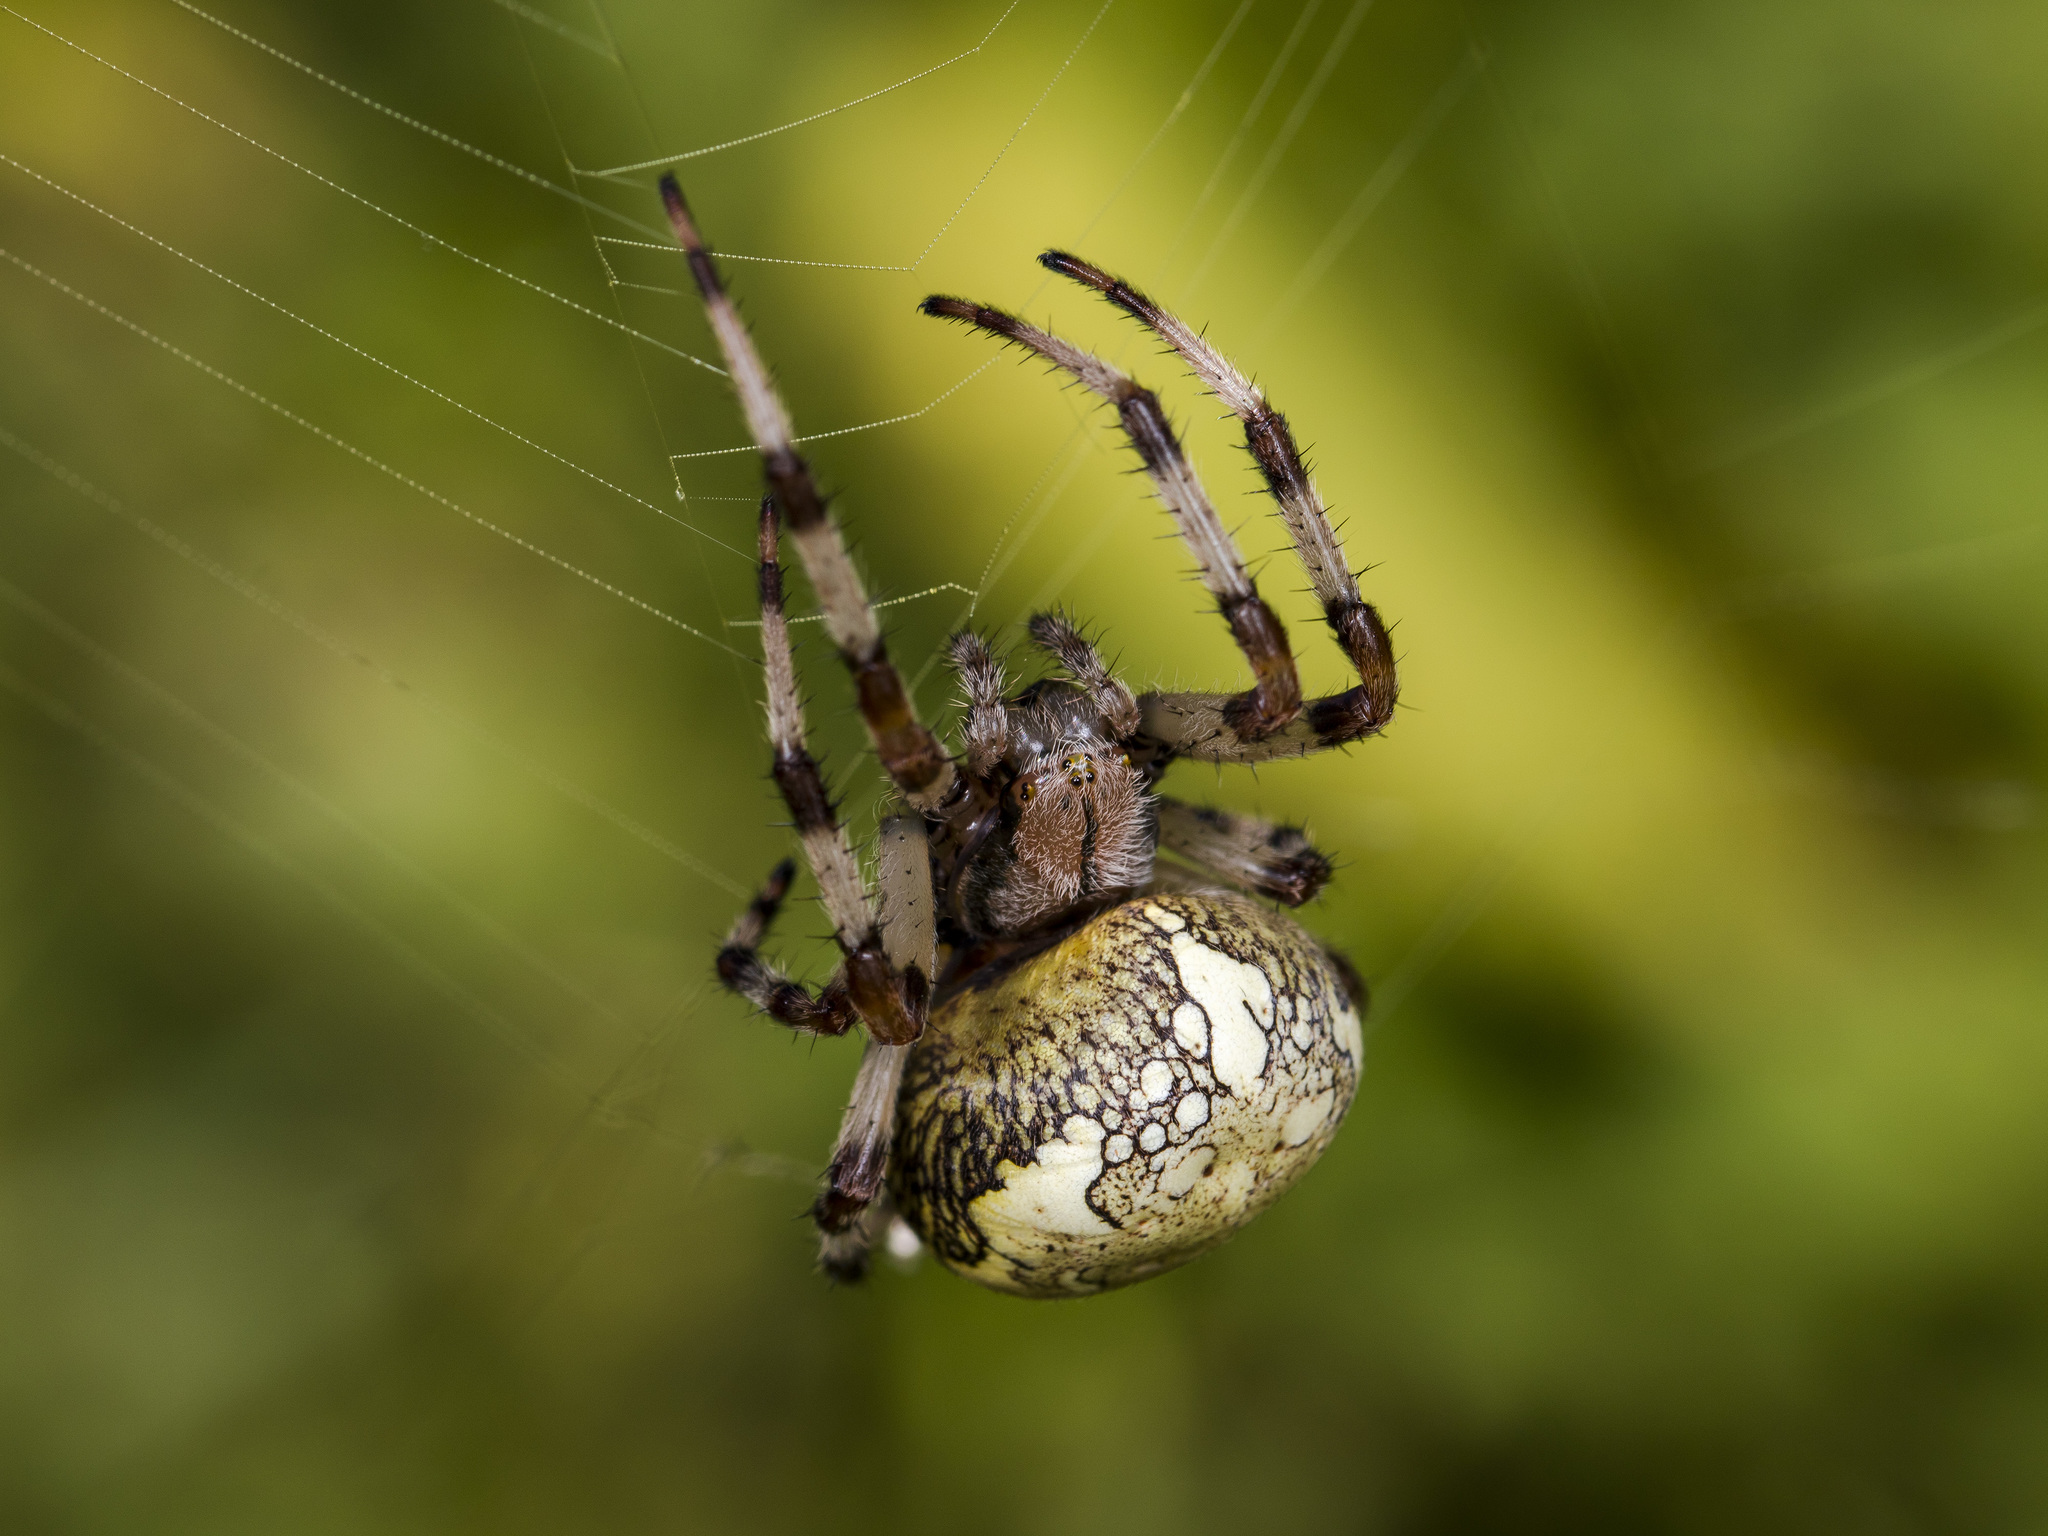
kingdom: Animalia
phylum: Arthropoda
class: Arachnida
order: Araneae
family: Araneidae
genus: Araneus
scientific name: Araneus marmoreus
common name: Marbled orbweaver
